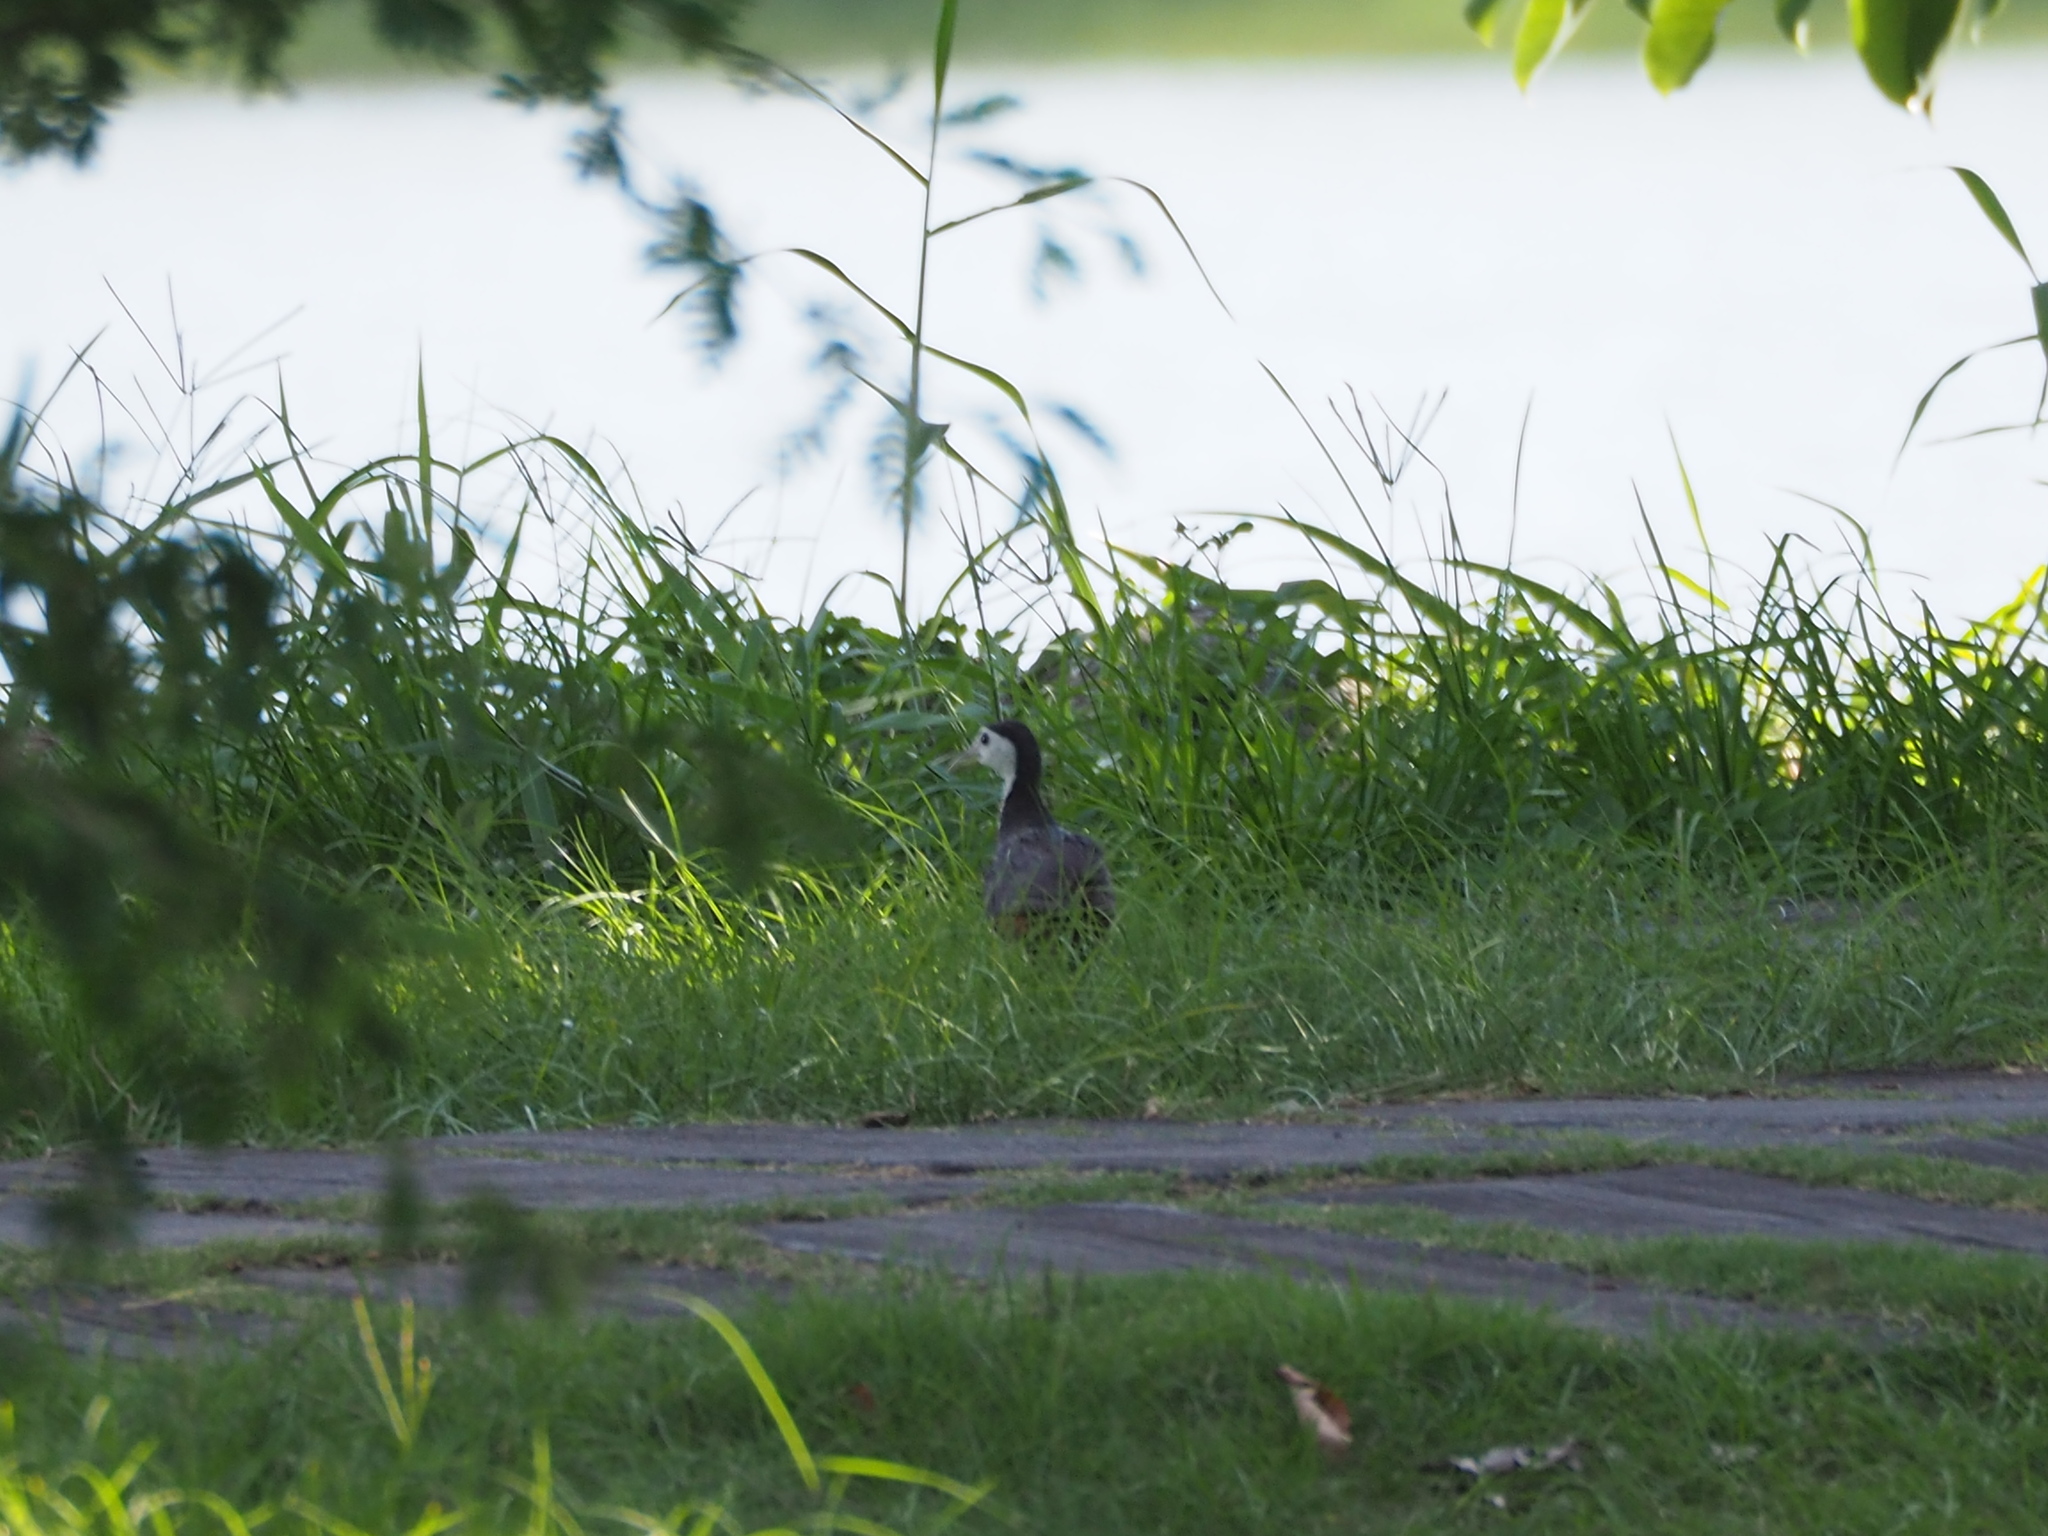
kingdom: Animalia
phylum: Chordata
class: Aves
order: Gruiformes
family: Rallidae
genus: Amaurornis
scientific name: Amaurornis phoenicurus
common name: White-breasted waterhen
